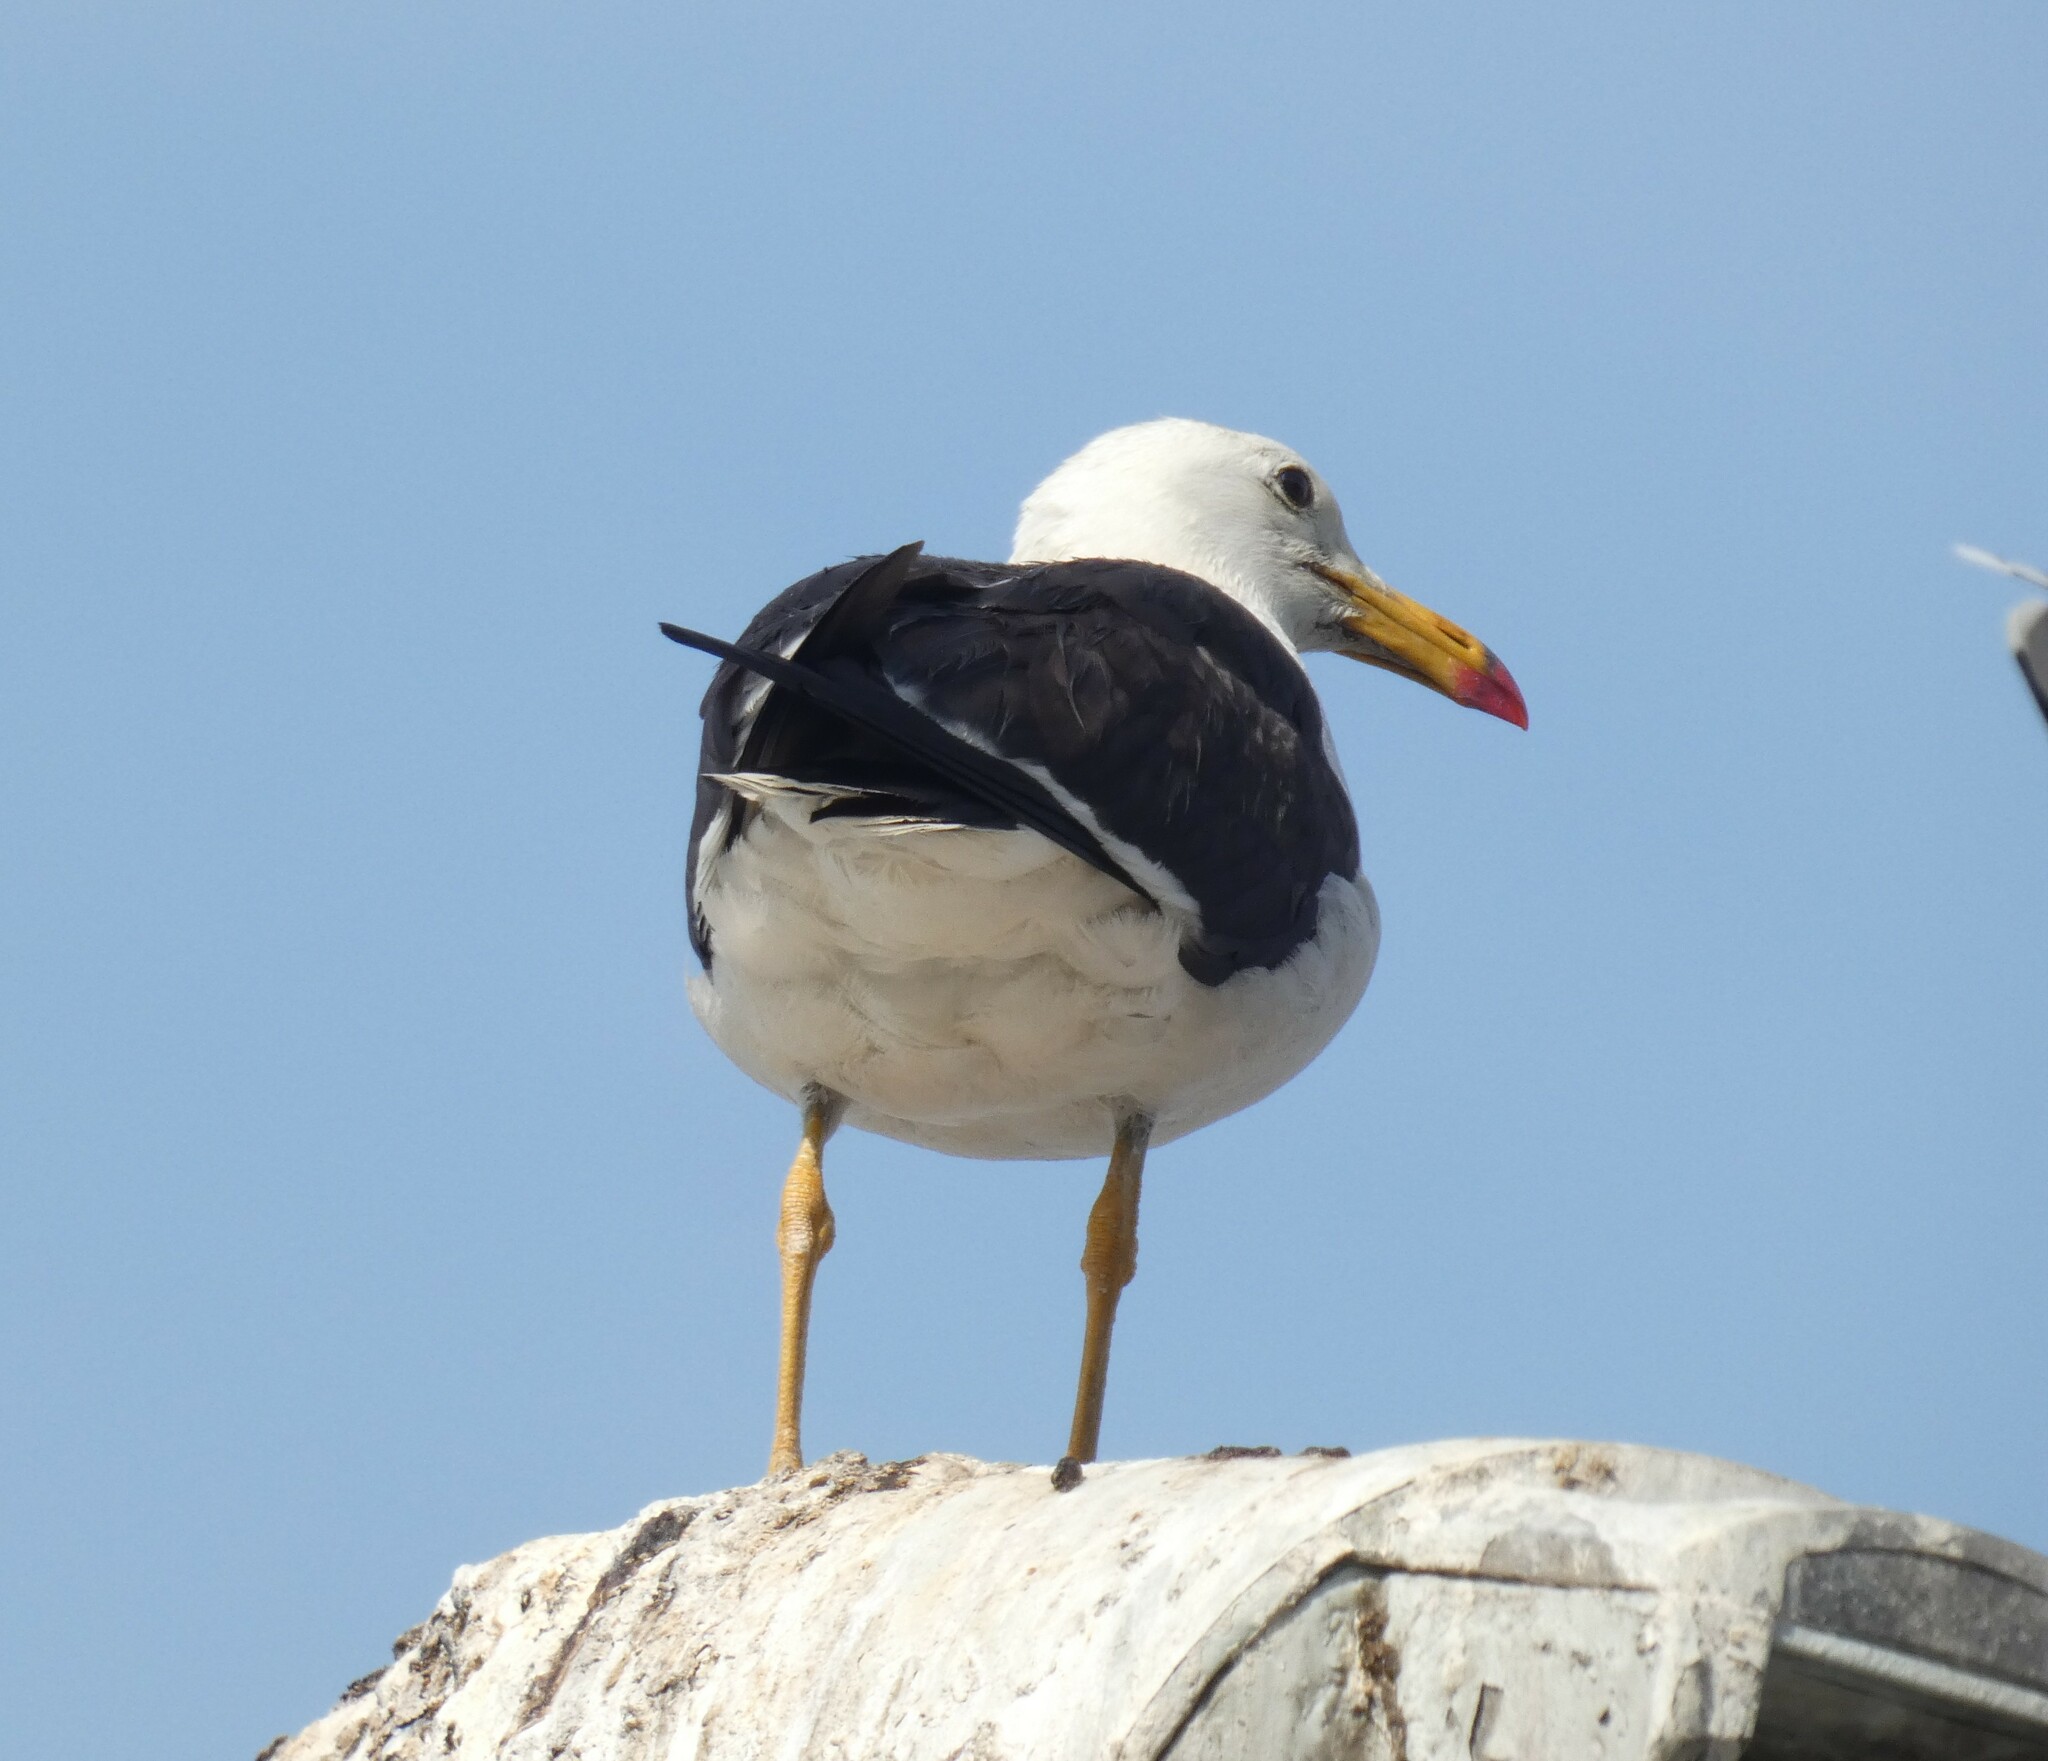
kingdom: Animalia
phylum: Chordata
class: Aves
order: Charadriiformes
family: Laridae
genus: Larus
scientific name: Larus belcheri
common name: Belcher's gull
